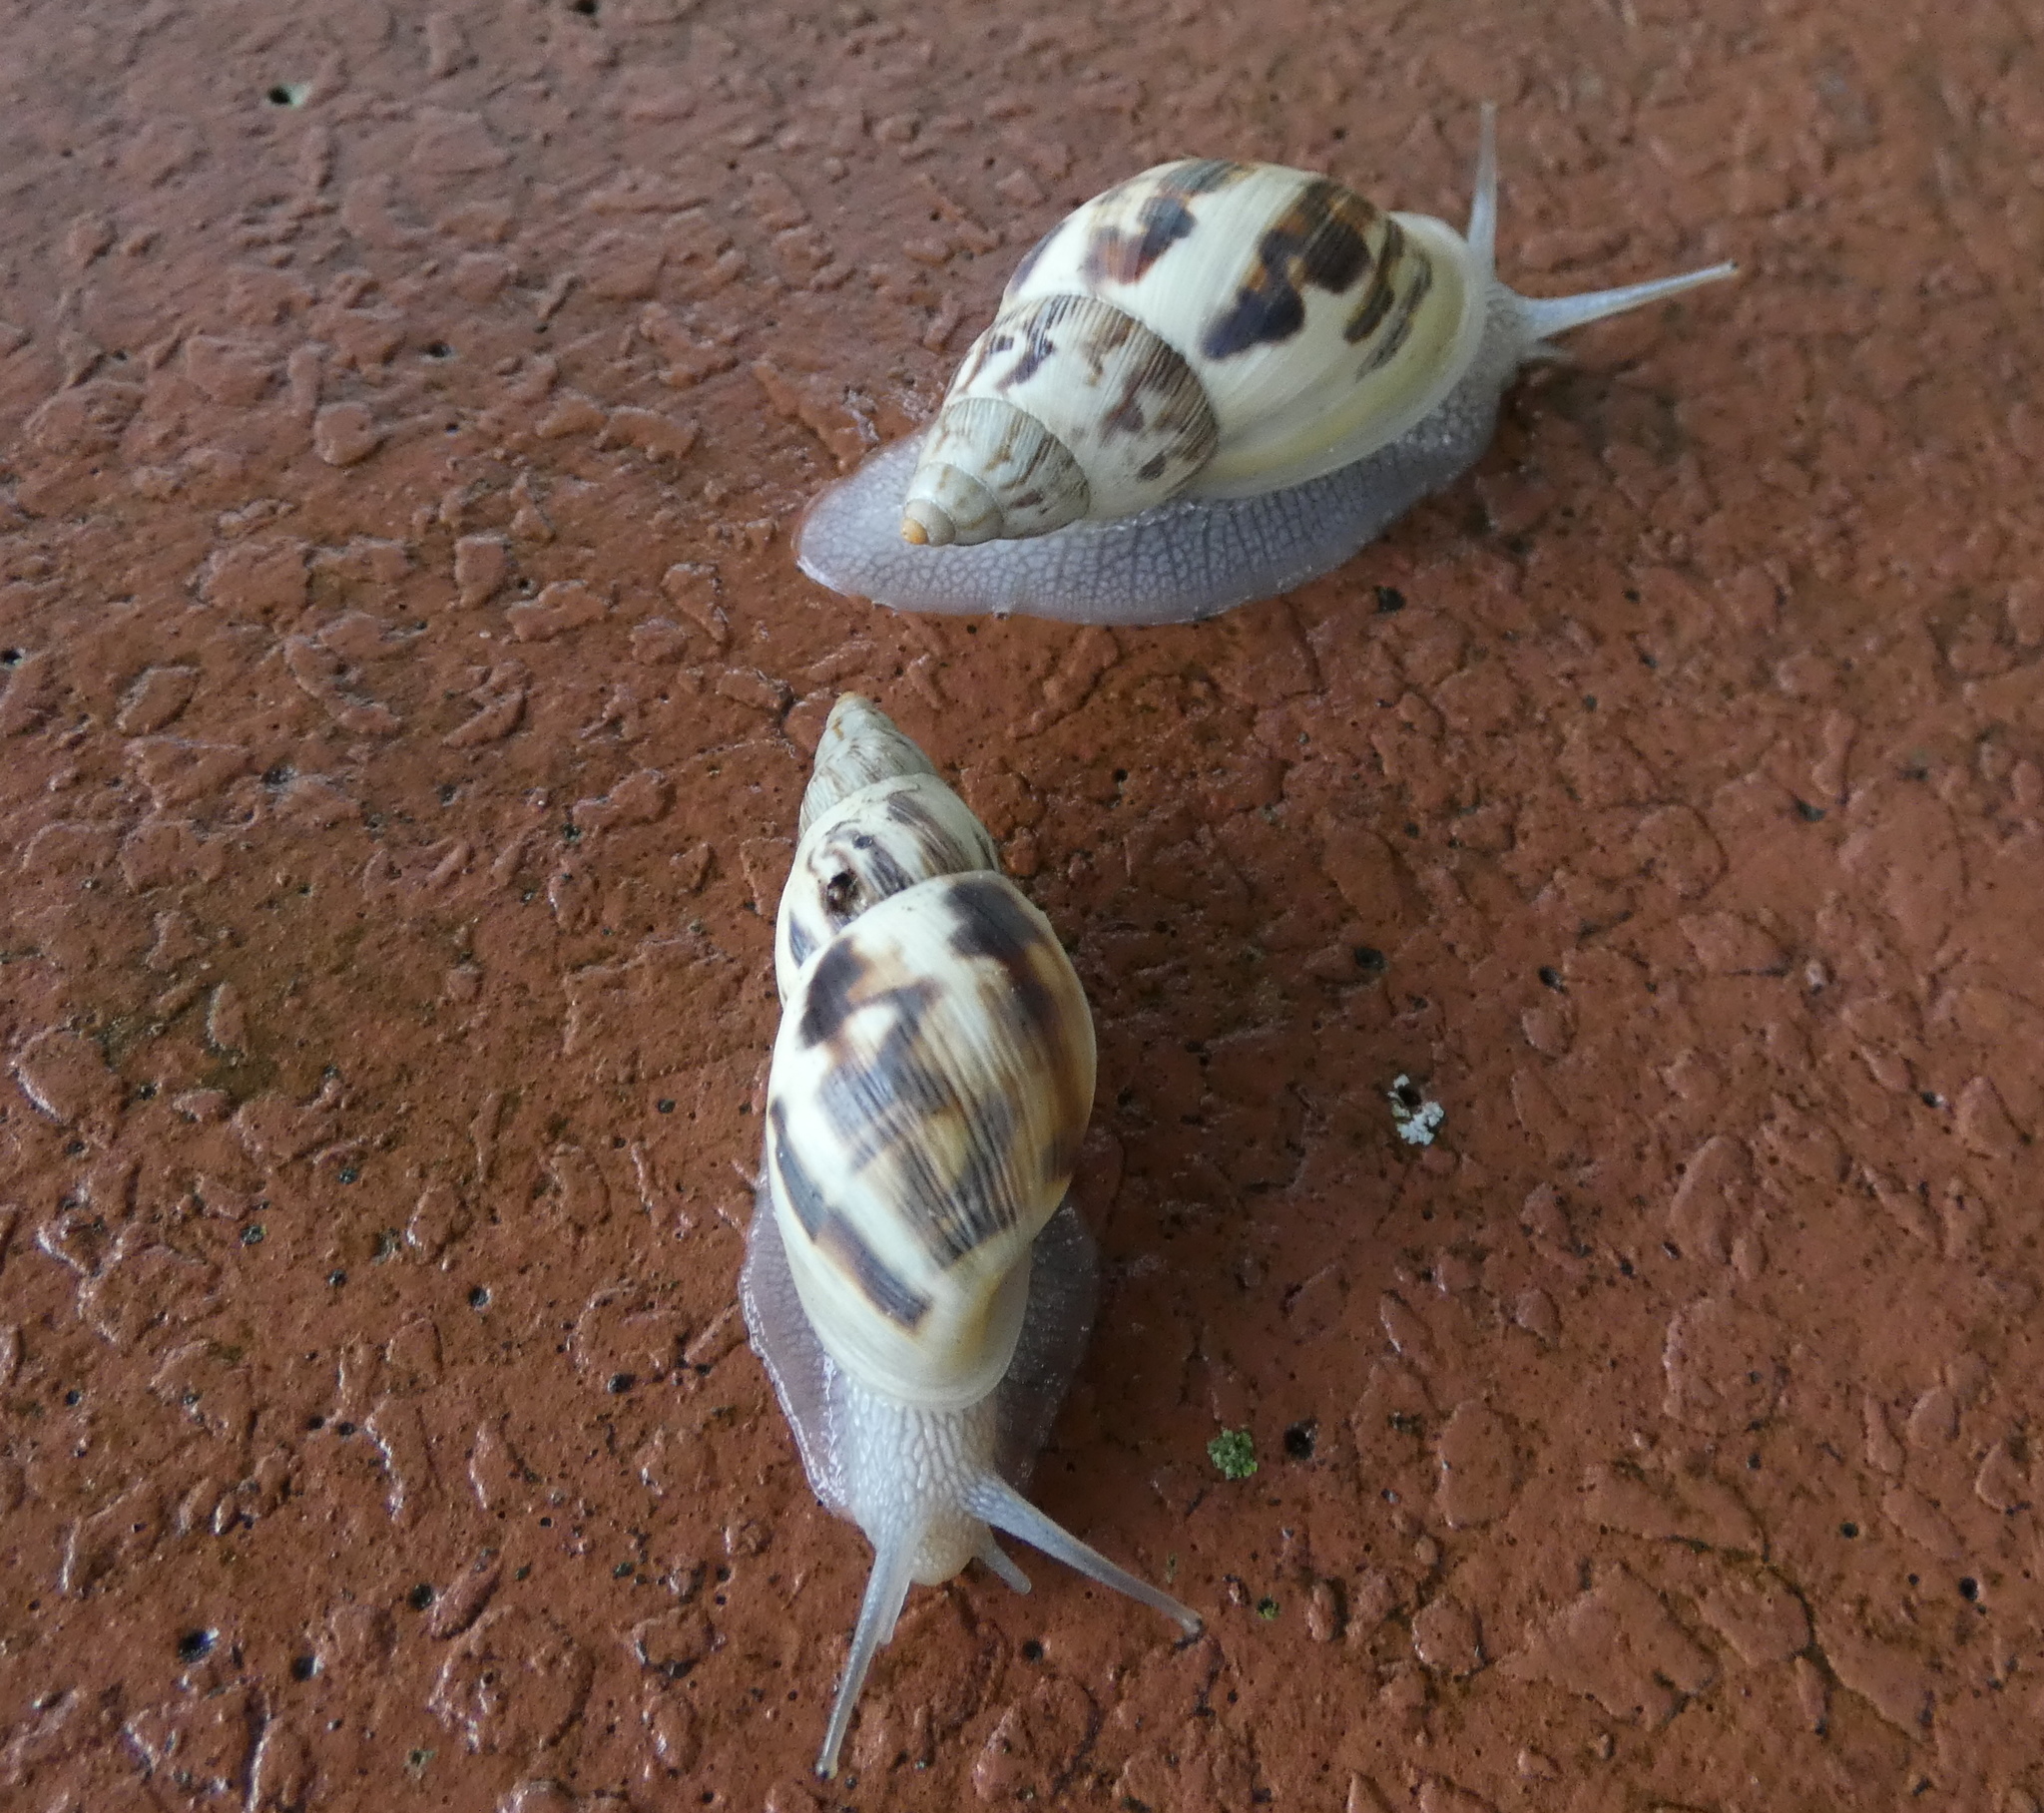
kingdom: Animalia
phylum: Mollusca
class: Gastropoda
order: Stylommatophora
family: Bulimulidae
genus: Drymaeus
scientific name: Drymaeus papyraceus
